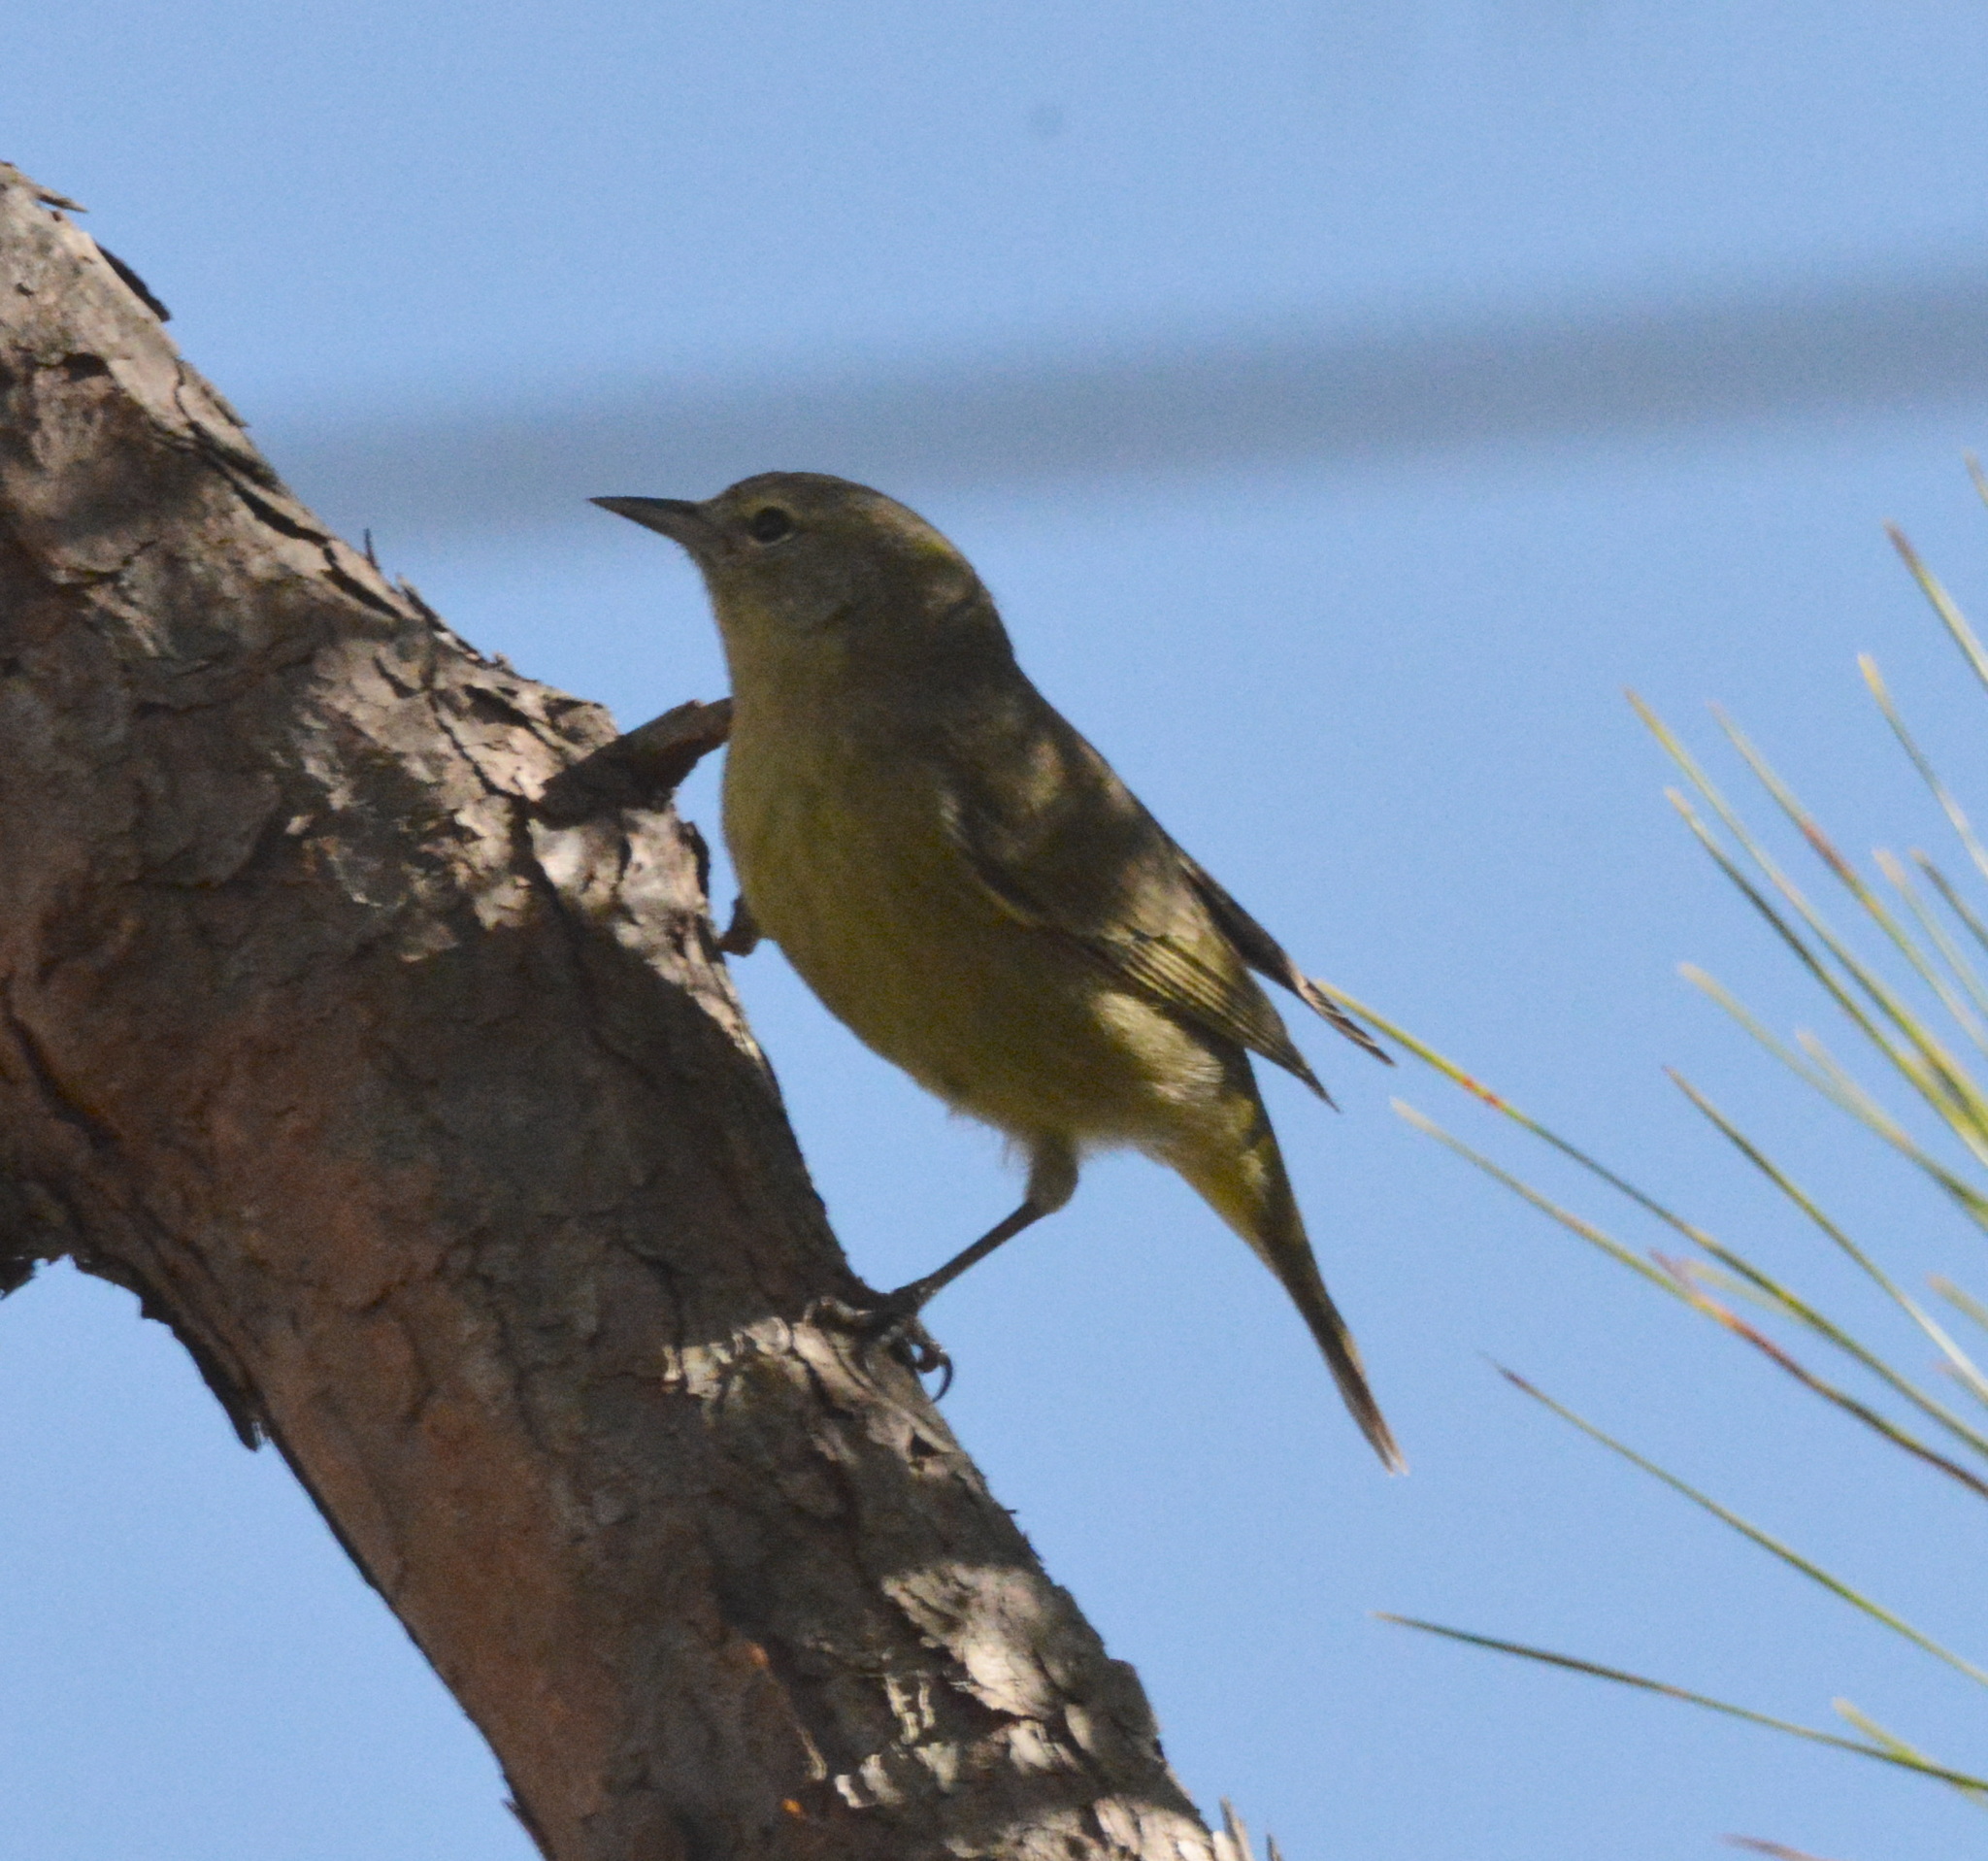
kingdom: Animalia
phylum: Chordata
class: Aves
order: Passeriformes
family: Parulidae
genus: Leiothlypis
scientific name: Leiothlypis celata
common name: Orange-crowned warbler
